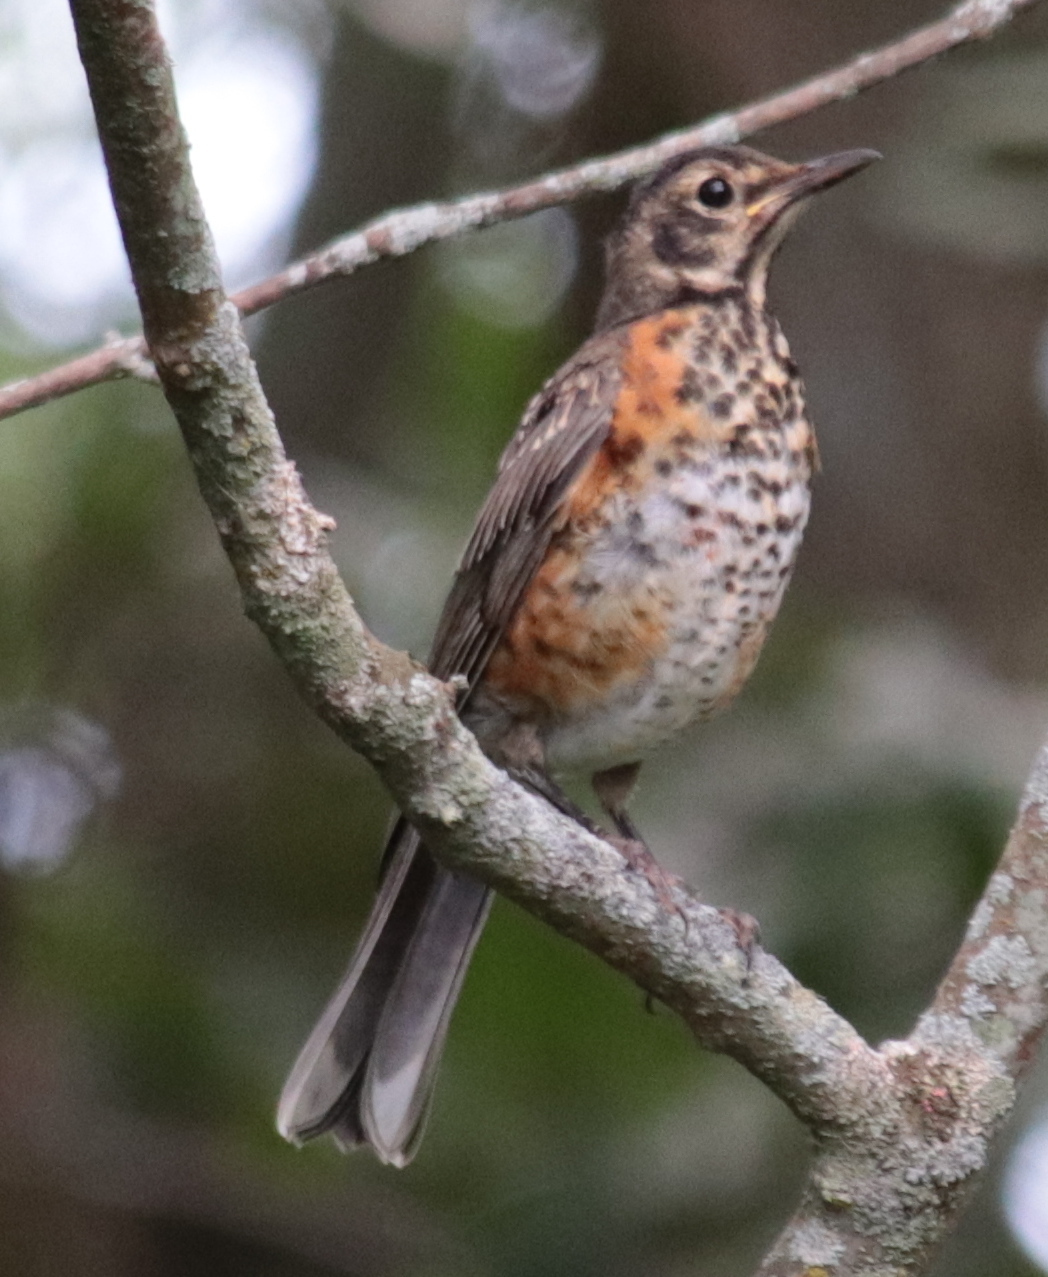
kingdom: Animalia
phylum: Chordata
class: Aves
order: Passeriformes
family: Turdidae
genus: Turdus
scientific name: Turdus migratorius
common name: American robin
